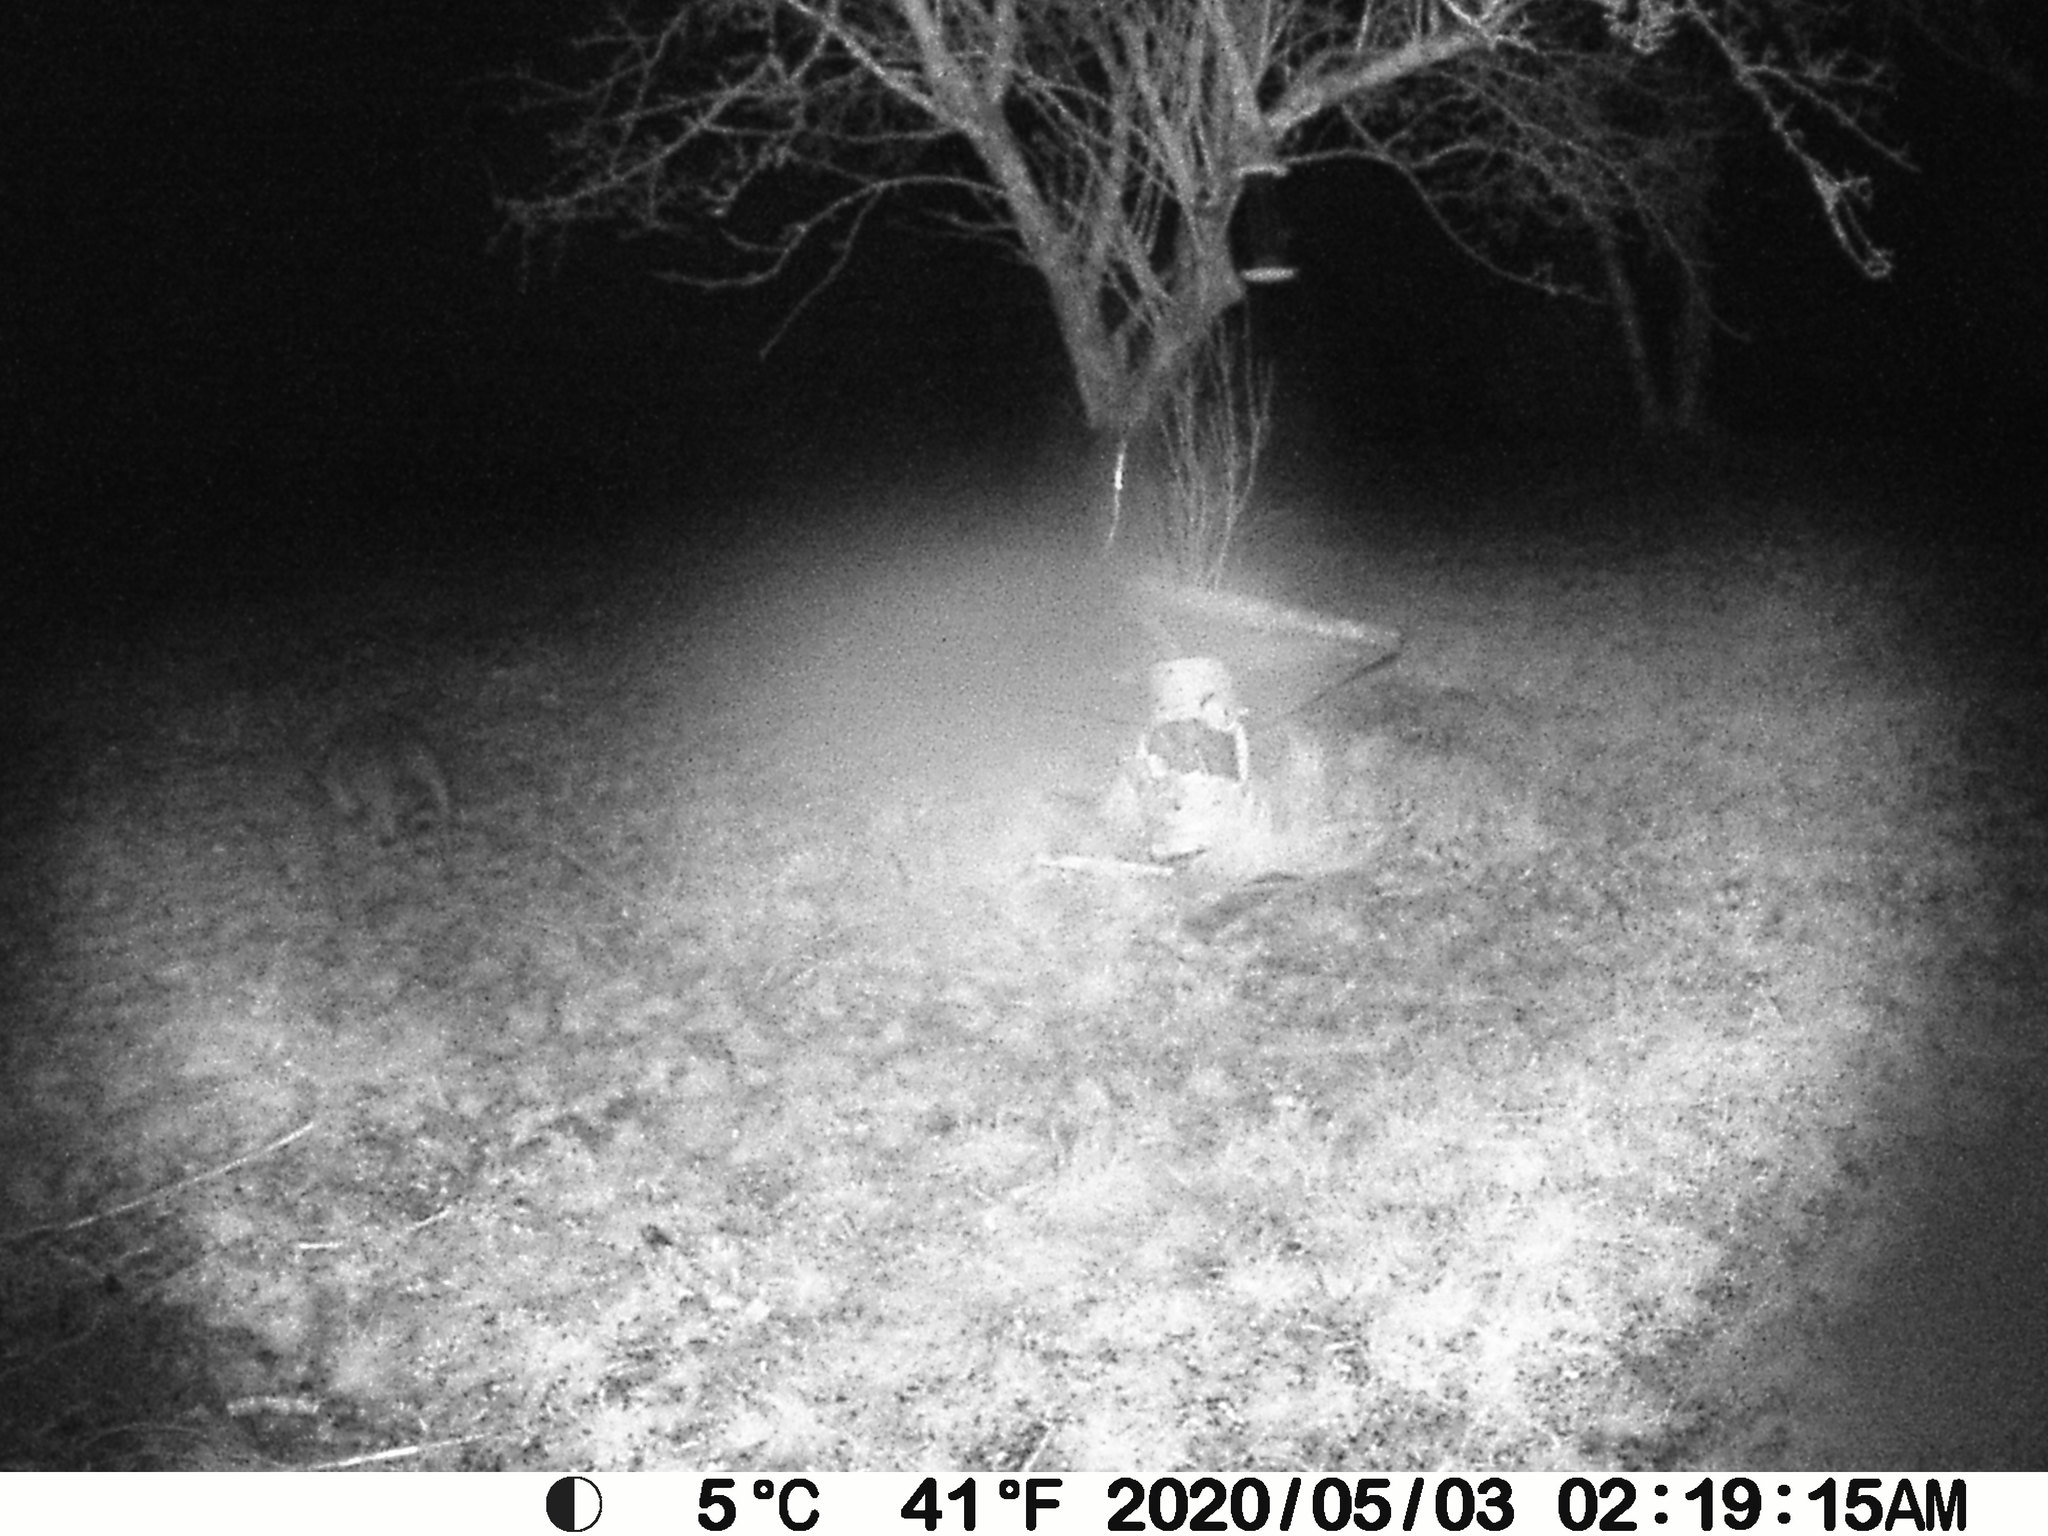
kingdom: Animalia
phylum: Chordata
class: Mammalia
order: Carnivora
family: Procyonidae
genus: Procyon
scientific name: Procyon lotor
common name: Raccoon
